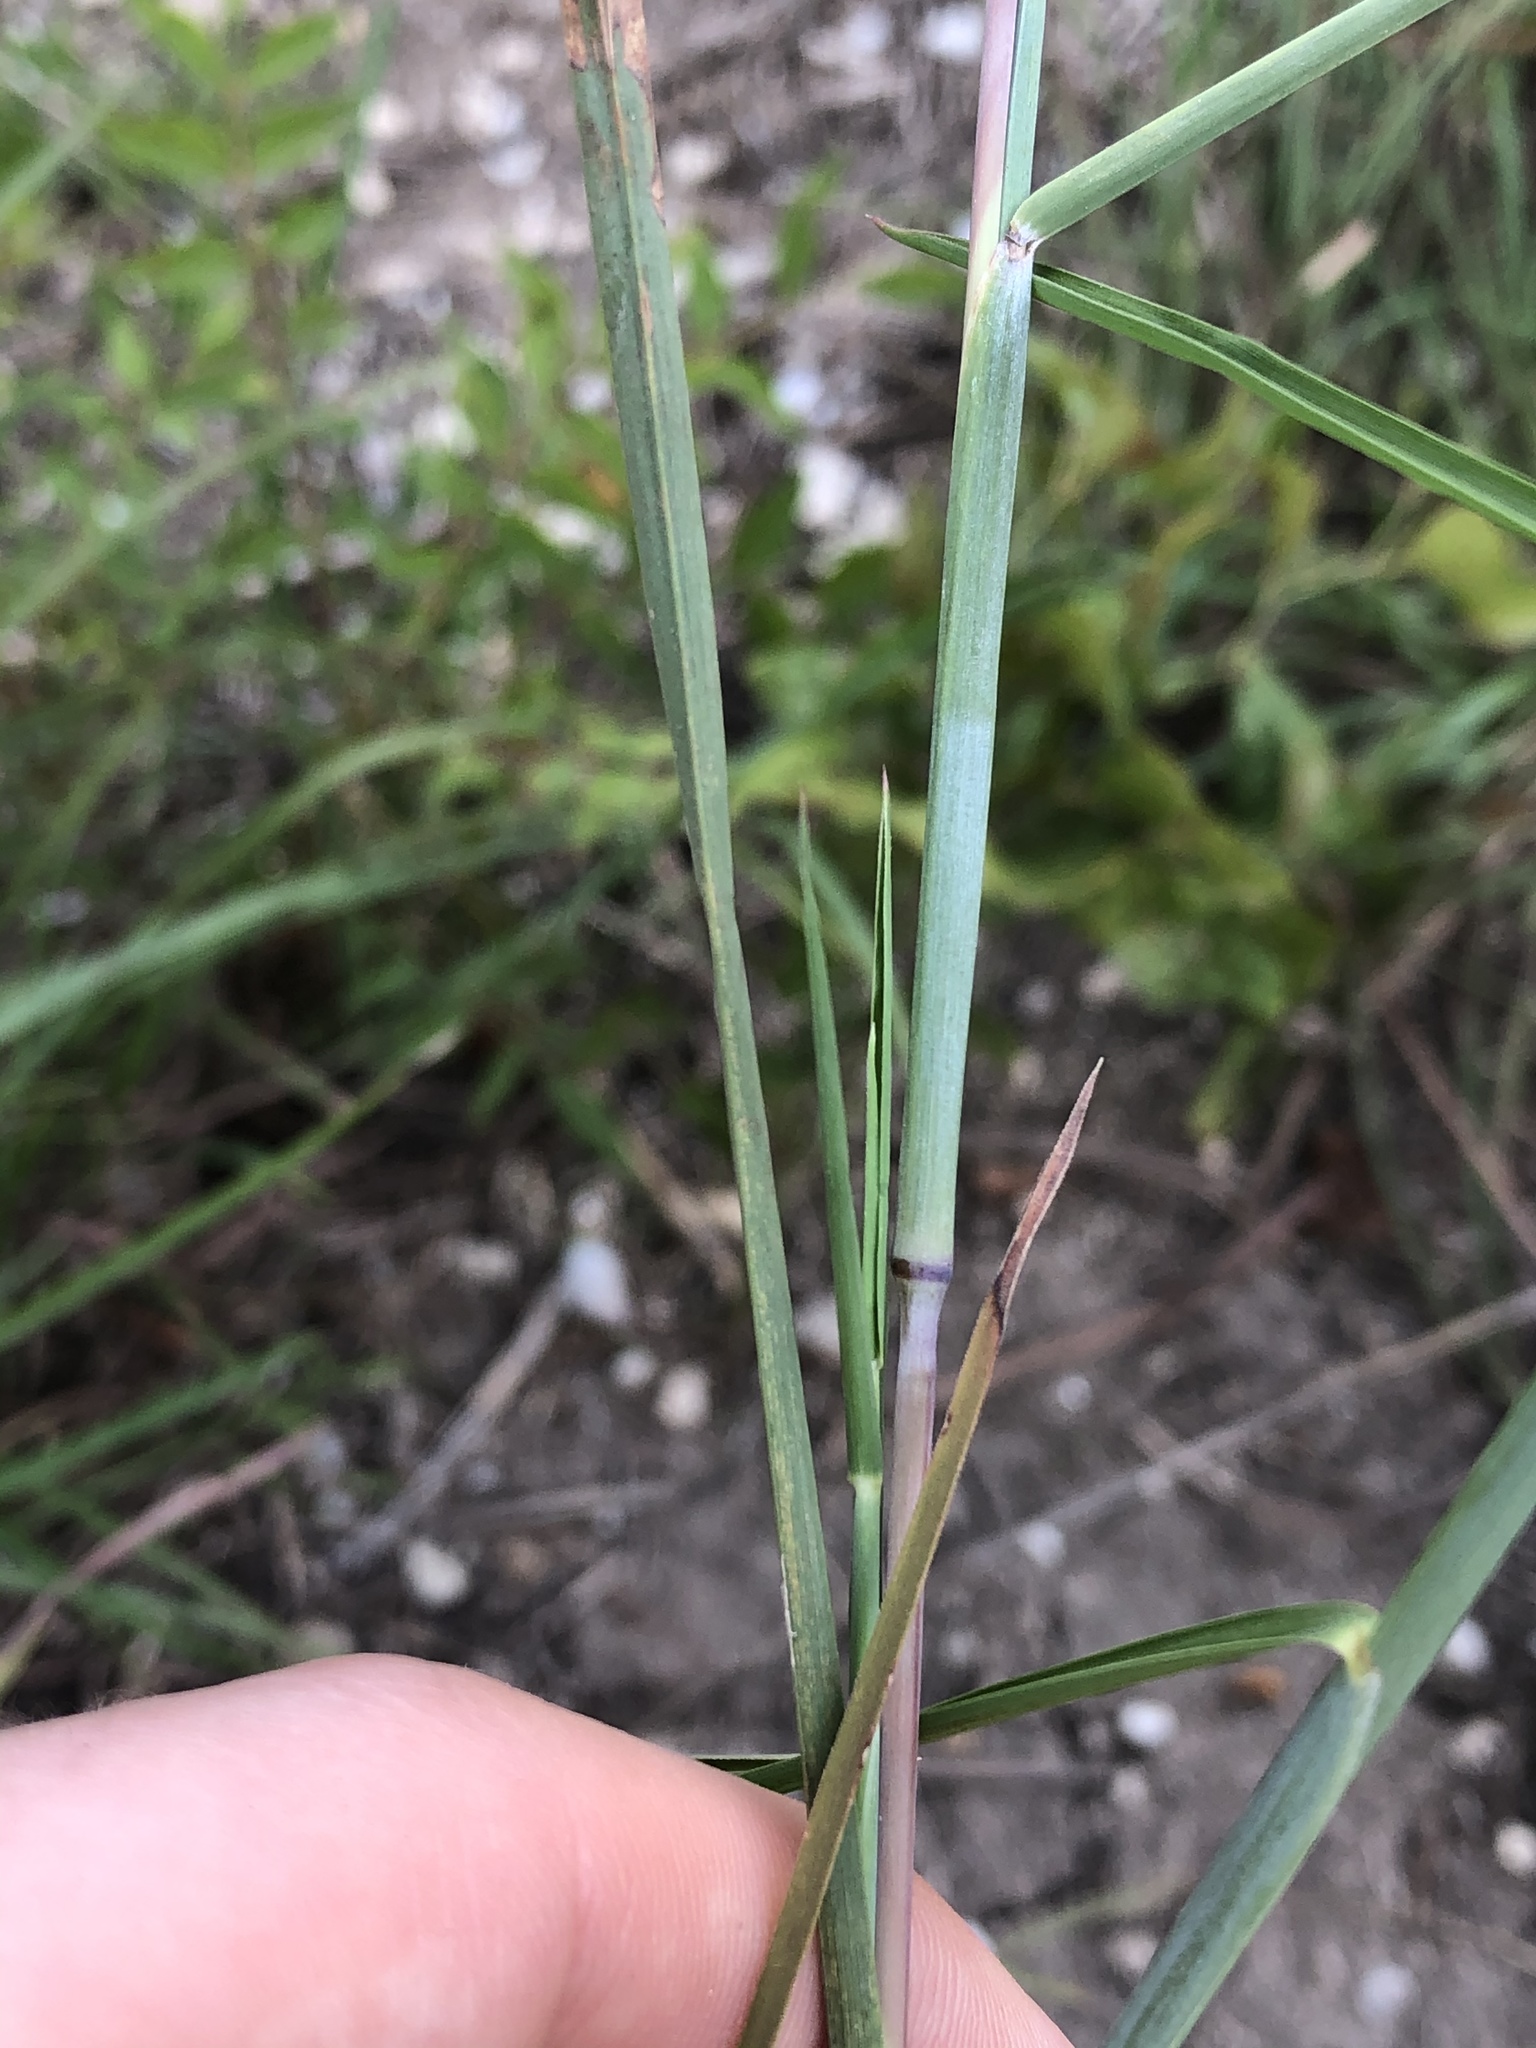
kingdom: Plantae
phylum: Tracheophyta
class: Liliopsida
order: Poales
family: Poaceae
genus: Schizachyrium
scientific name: Schizachyrium scoparium
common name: Little bluestem
